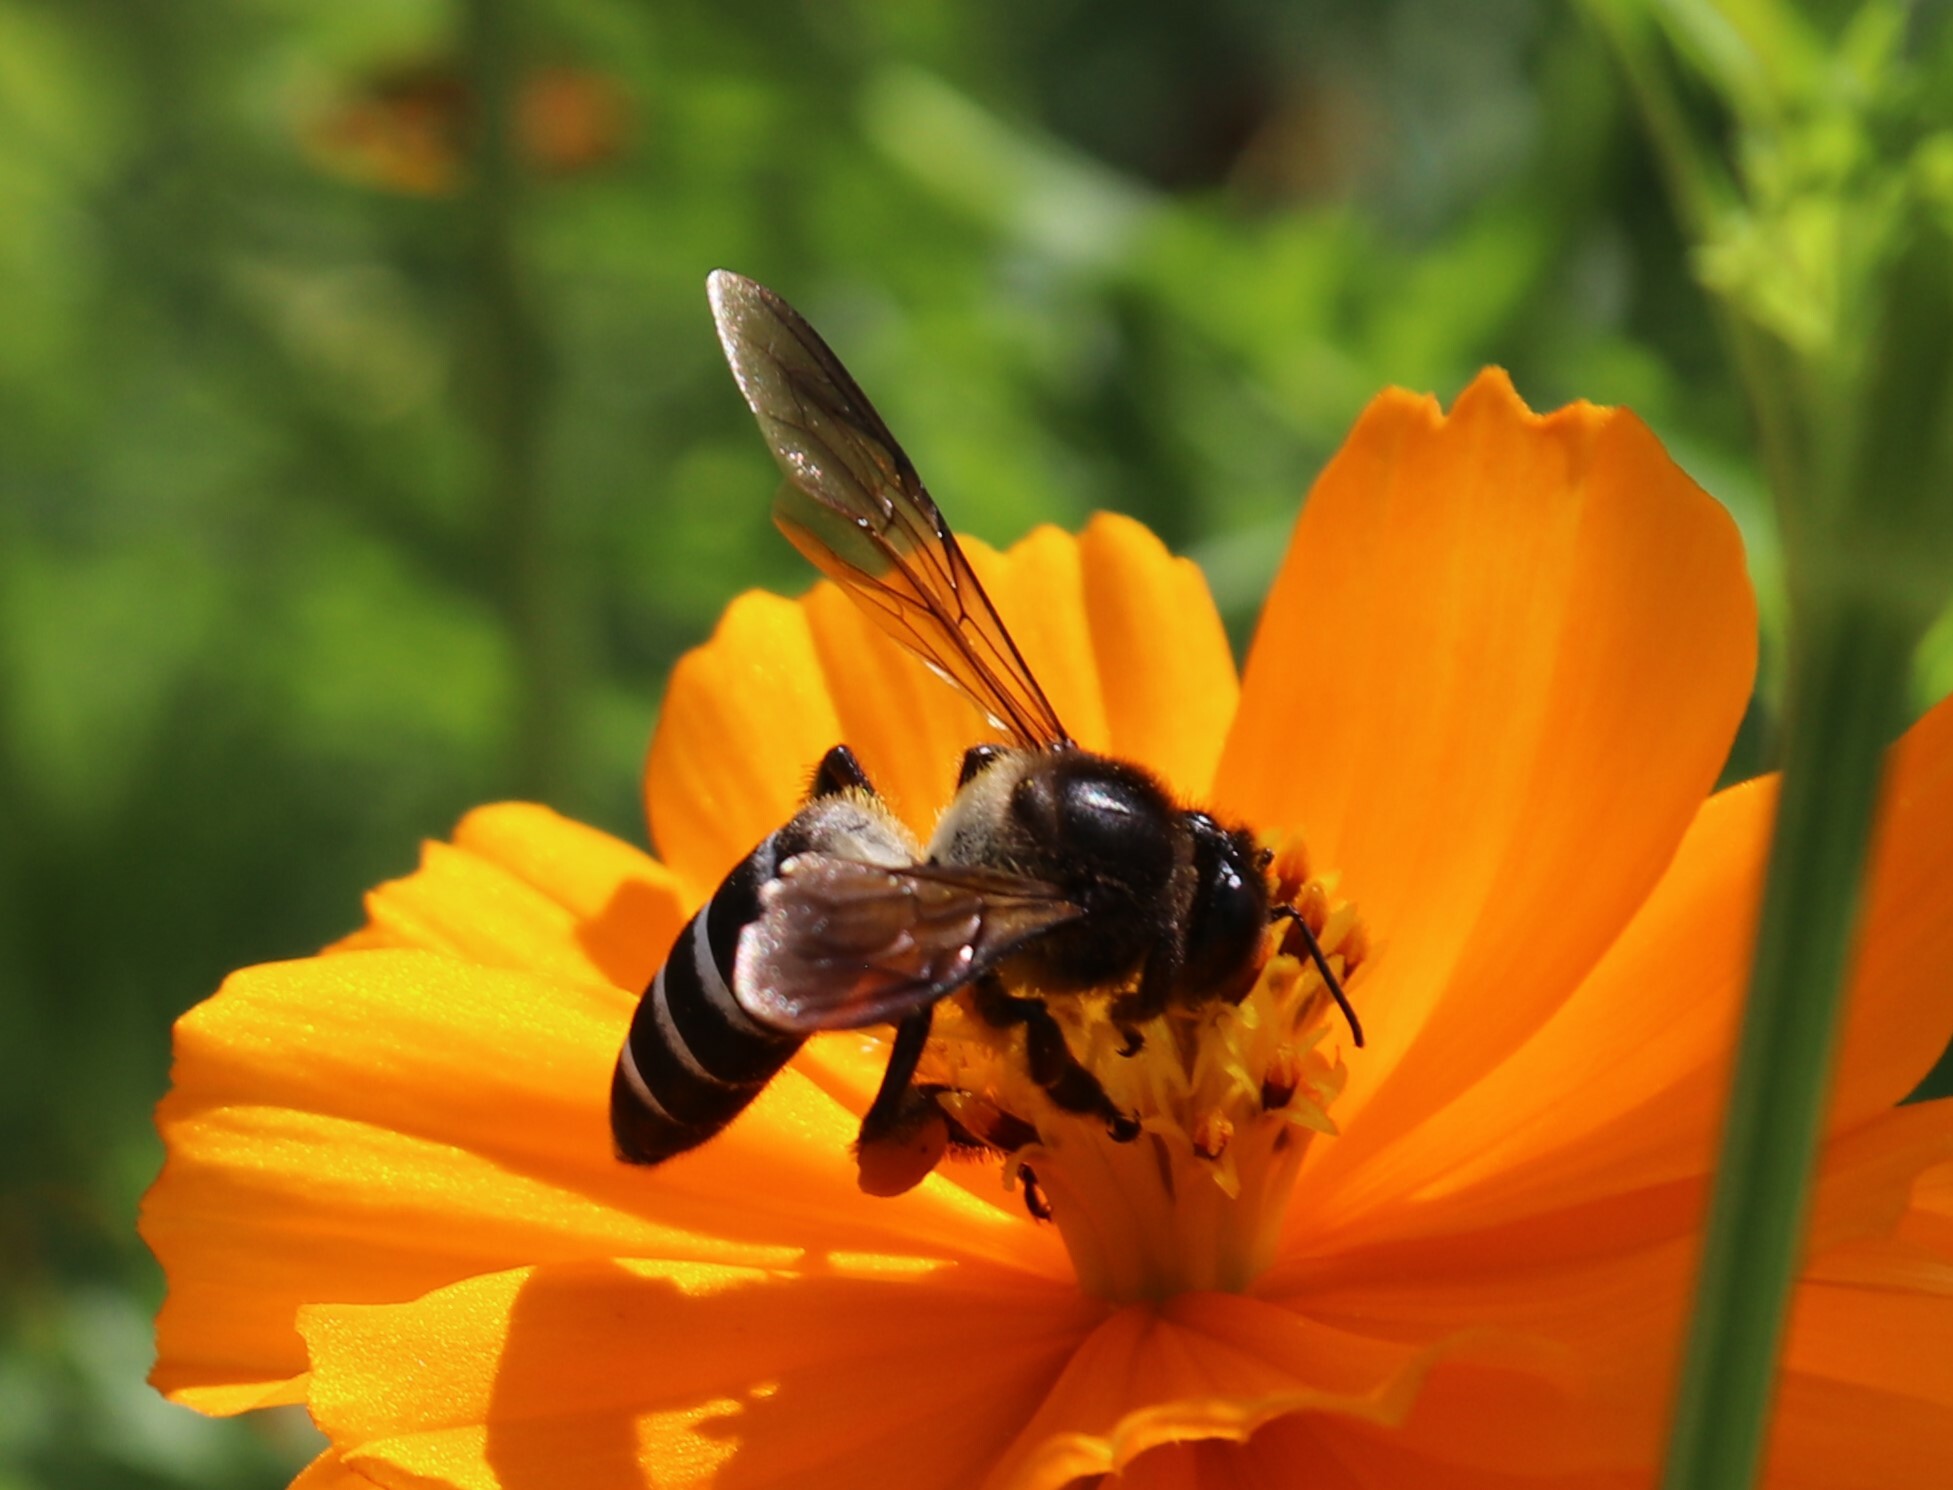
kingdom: Animalia
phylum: Arthropoda
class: Insecta
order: Hymenoptera
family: Apidae
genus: Apis
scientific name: Apis dorsata
